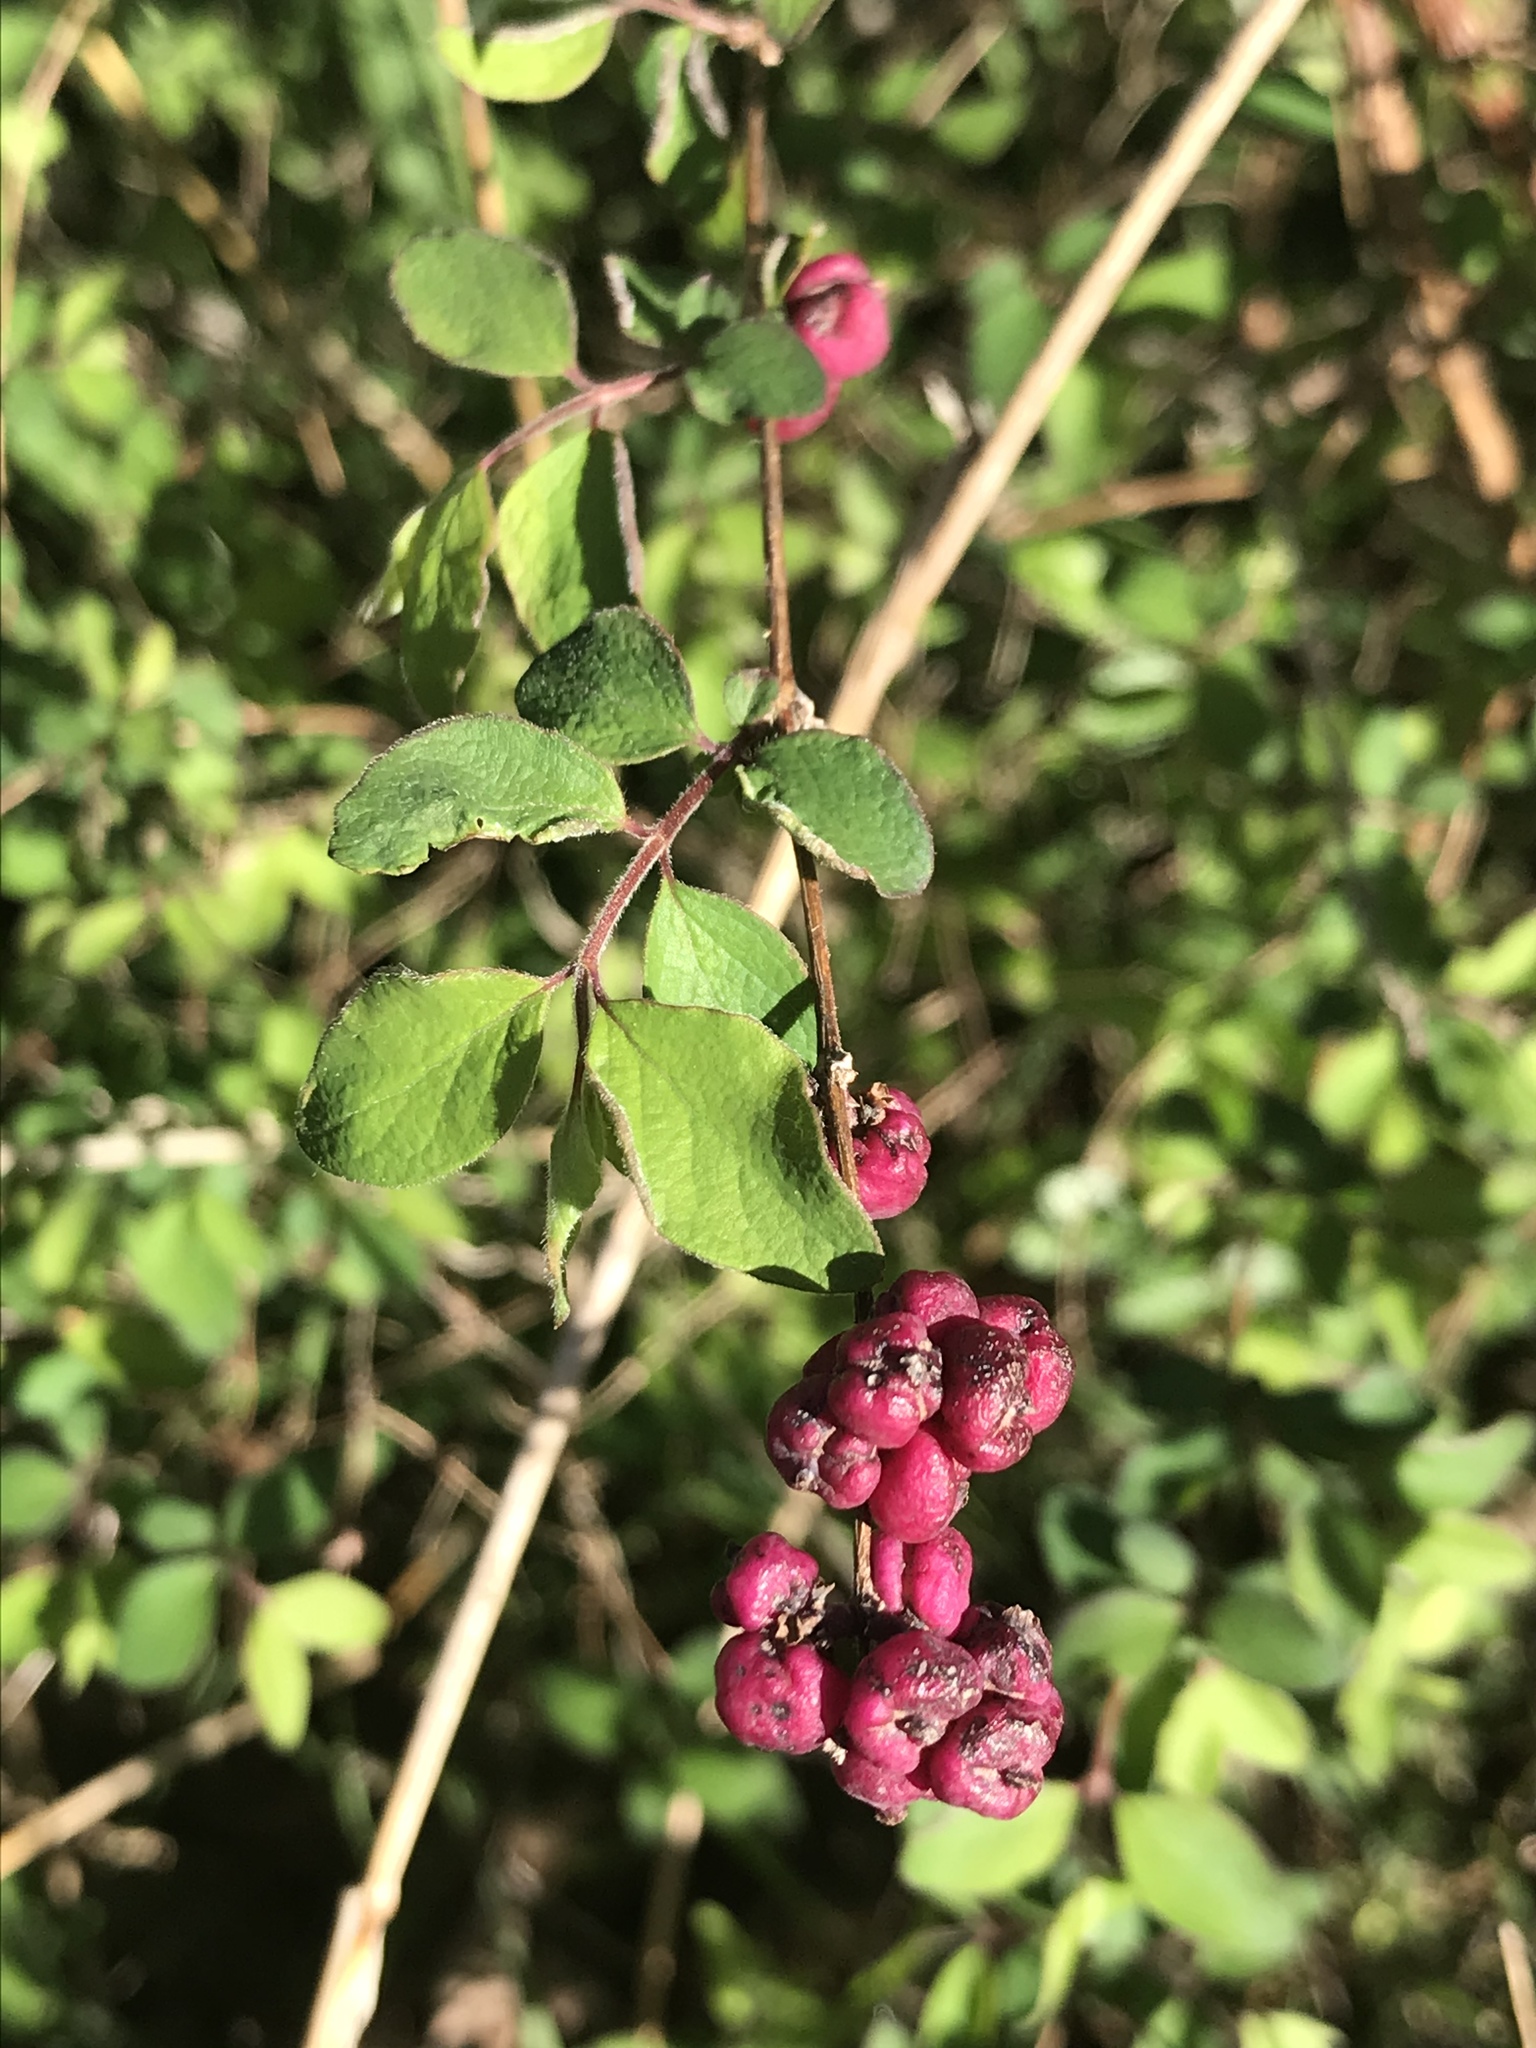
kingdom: Plantae
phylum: Tracheophyta
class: Magnoliopsida
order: Dipsacales
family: Caprifoliaceae
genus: Symphoricarpos
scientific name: Symphoricarpos orbiculatus
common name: Coralberry
